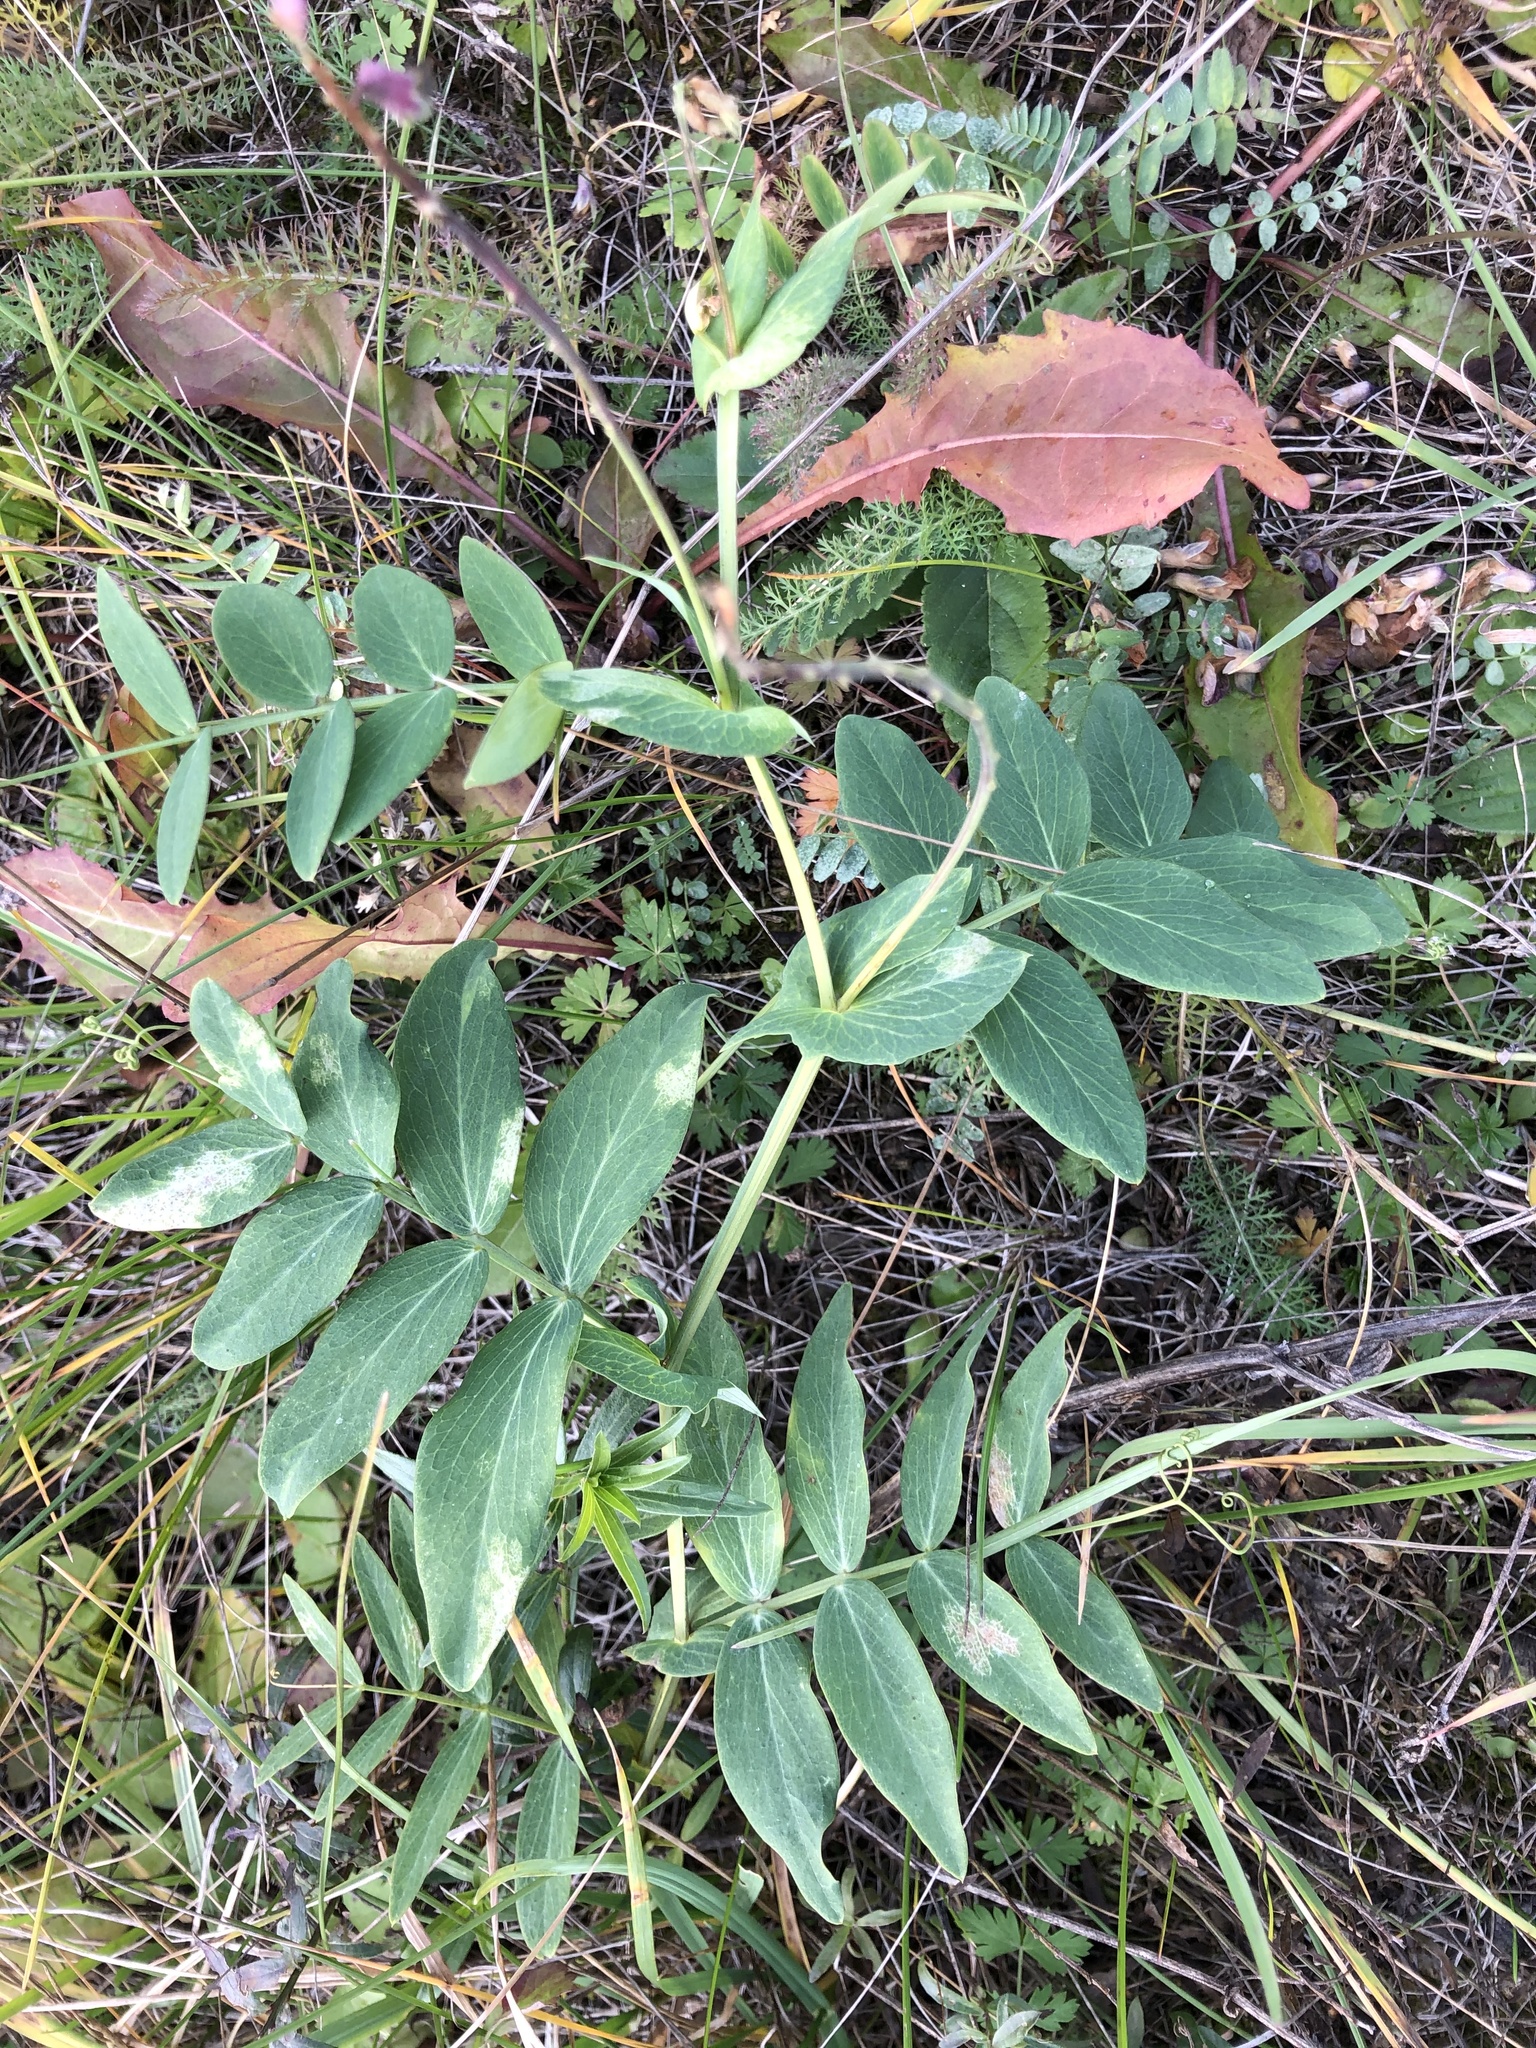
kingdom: Plantae
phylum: Tracheophyta
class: Magnoliopsida
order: Fabales
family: Fabaceae
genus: Lathyrus
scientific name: Lathyrus pisiformis
